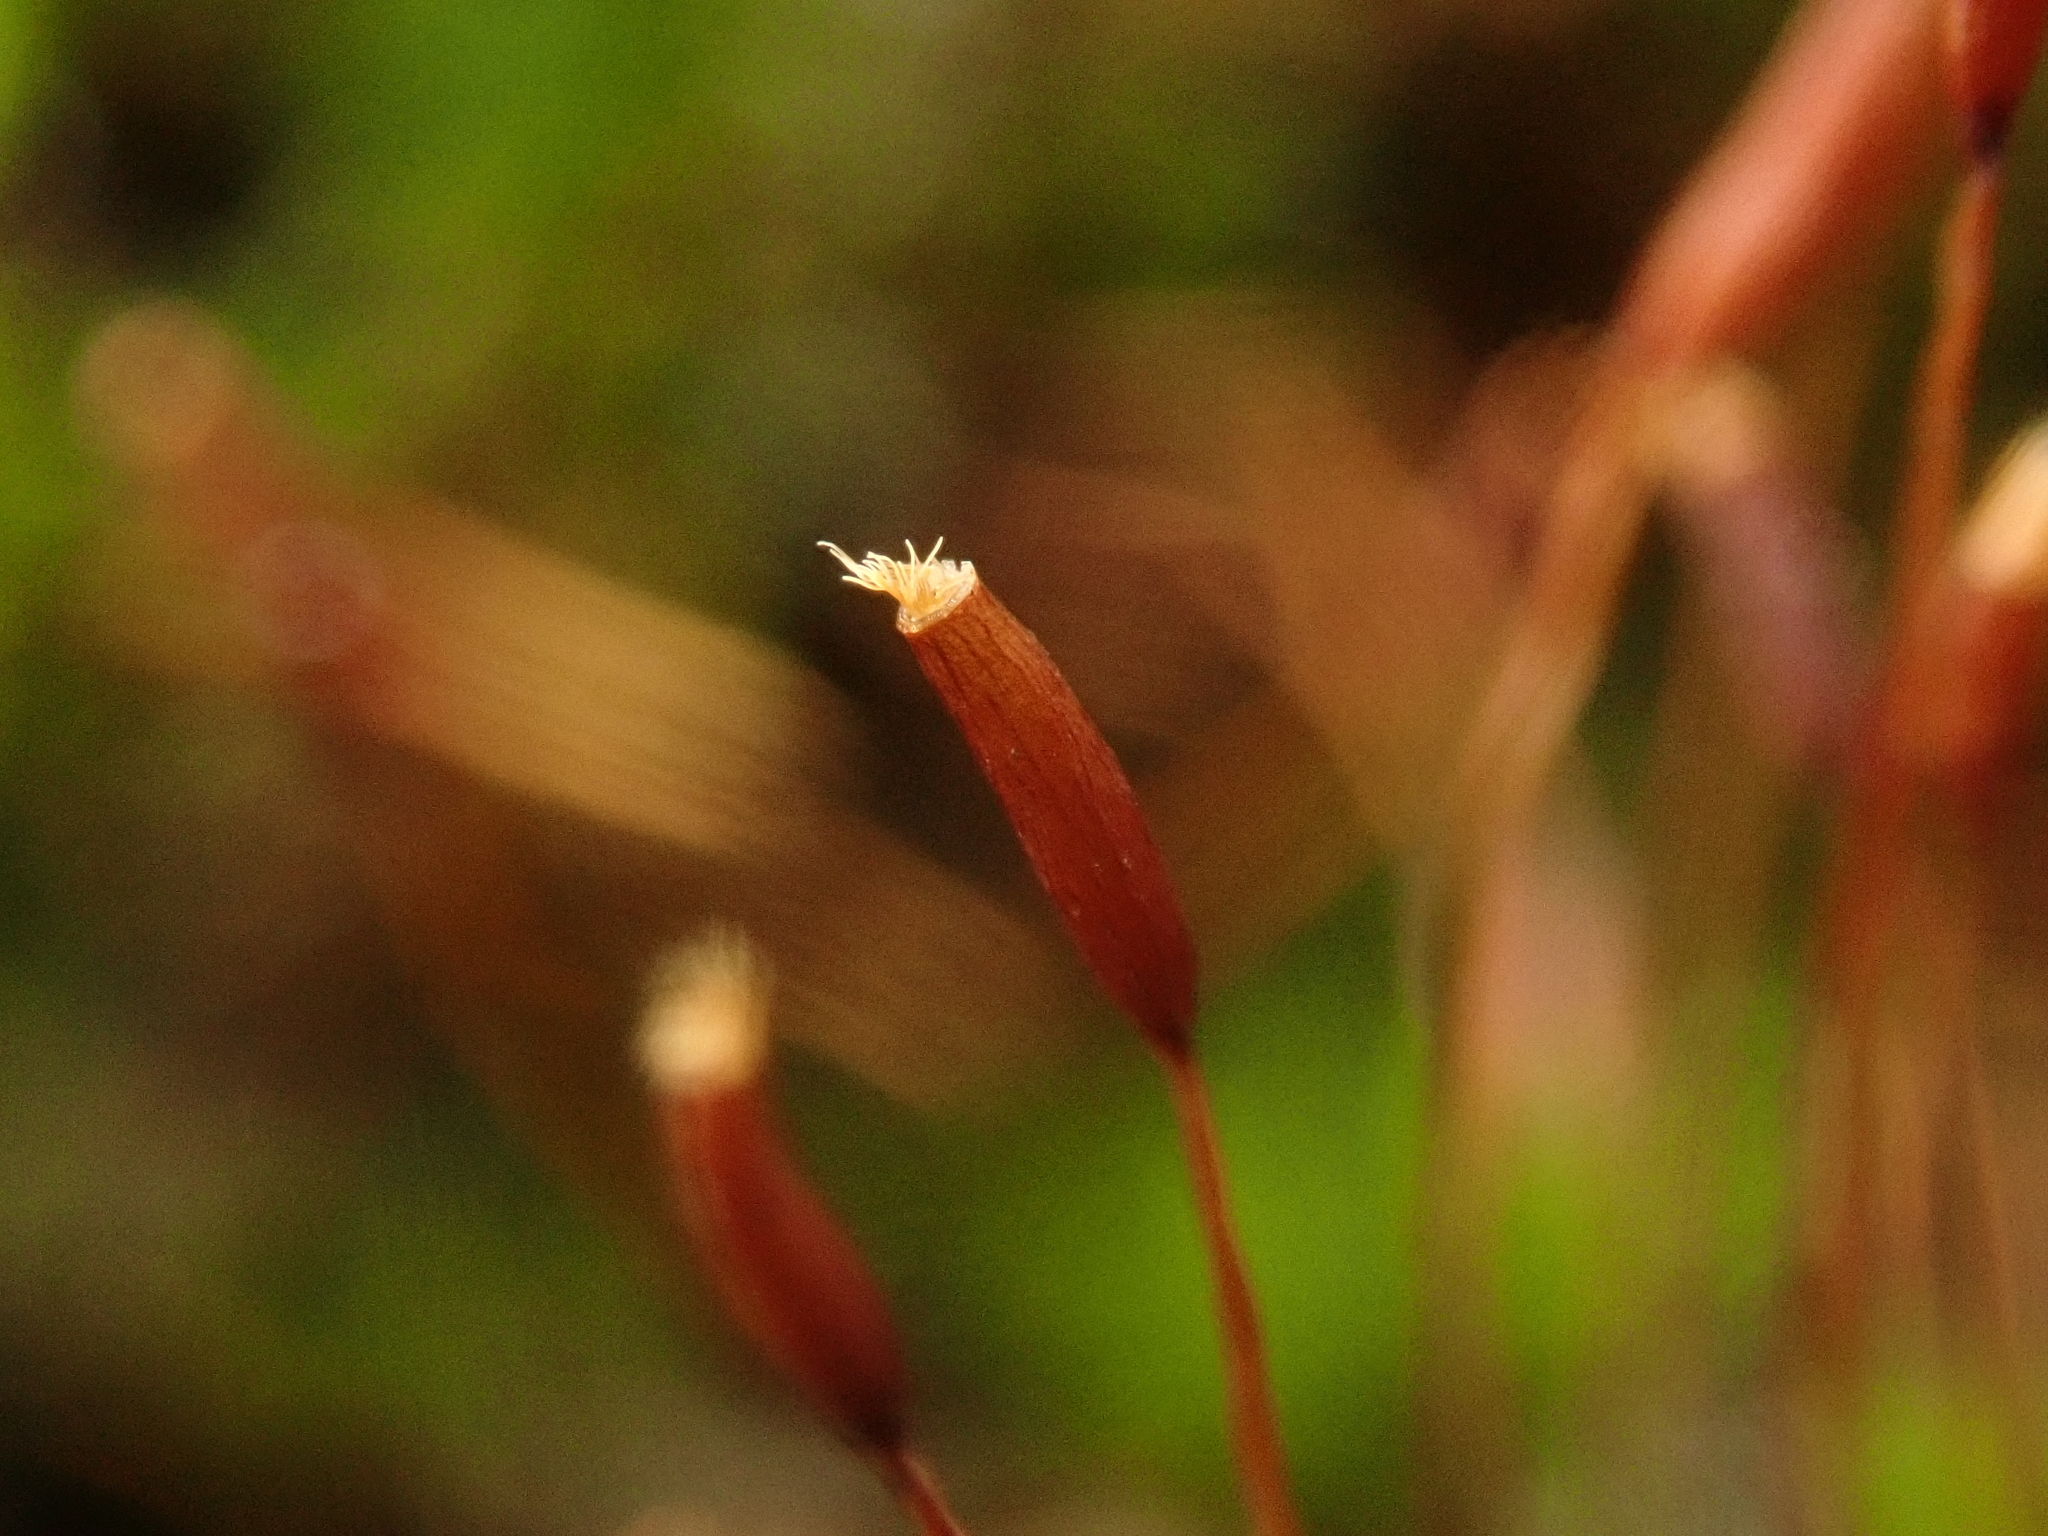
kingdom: Plantae
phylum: Bryophyta
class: Bryopsida
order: Pottiales
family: Pottiaceae
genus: Tortula
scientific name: Tortula muralis
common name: Wall screw-moss
